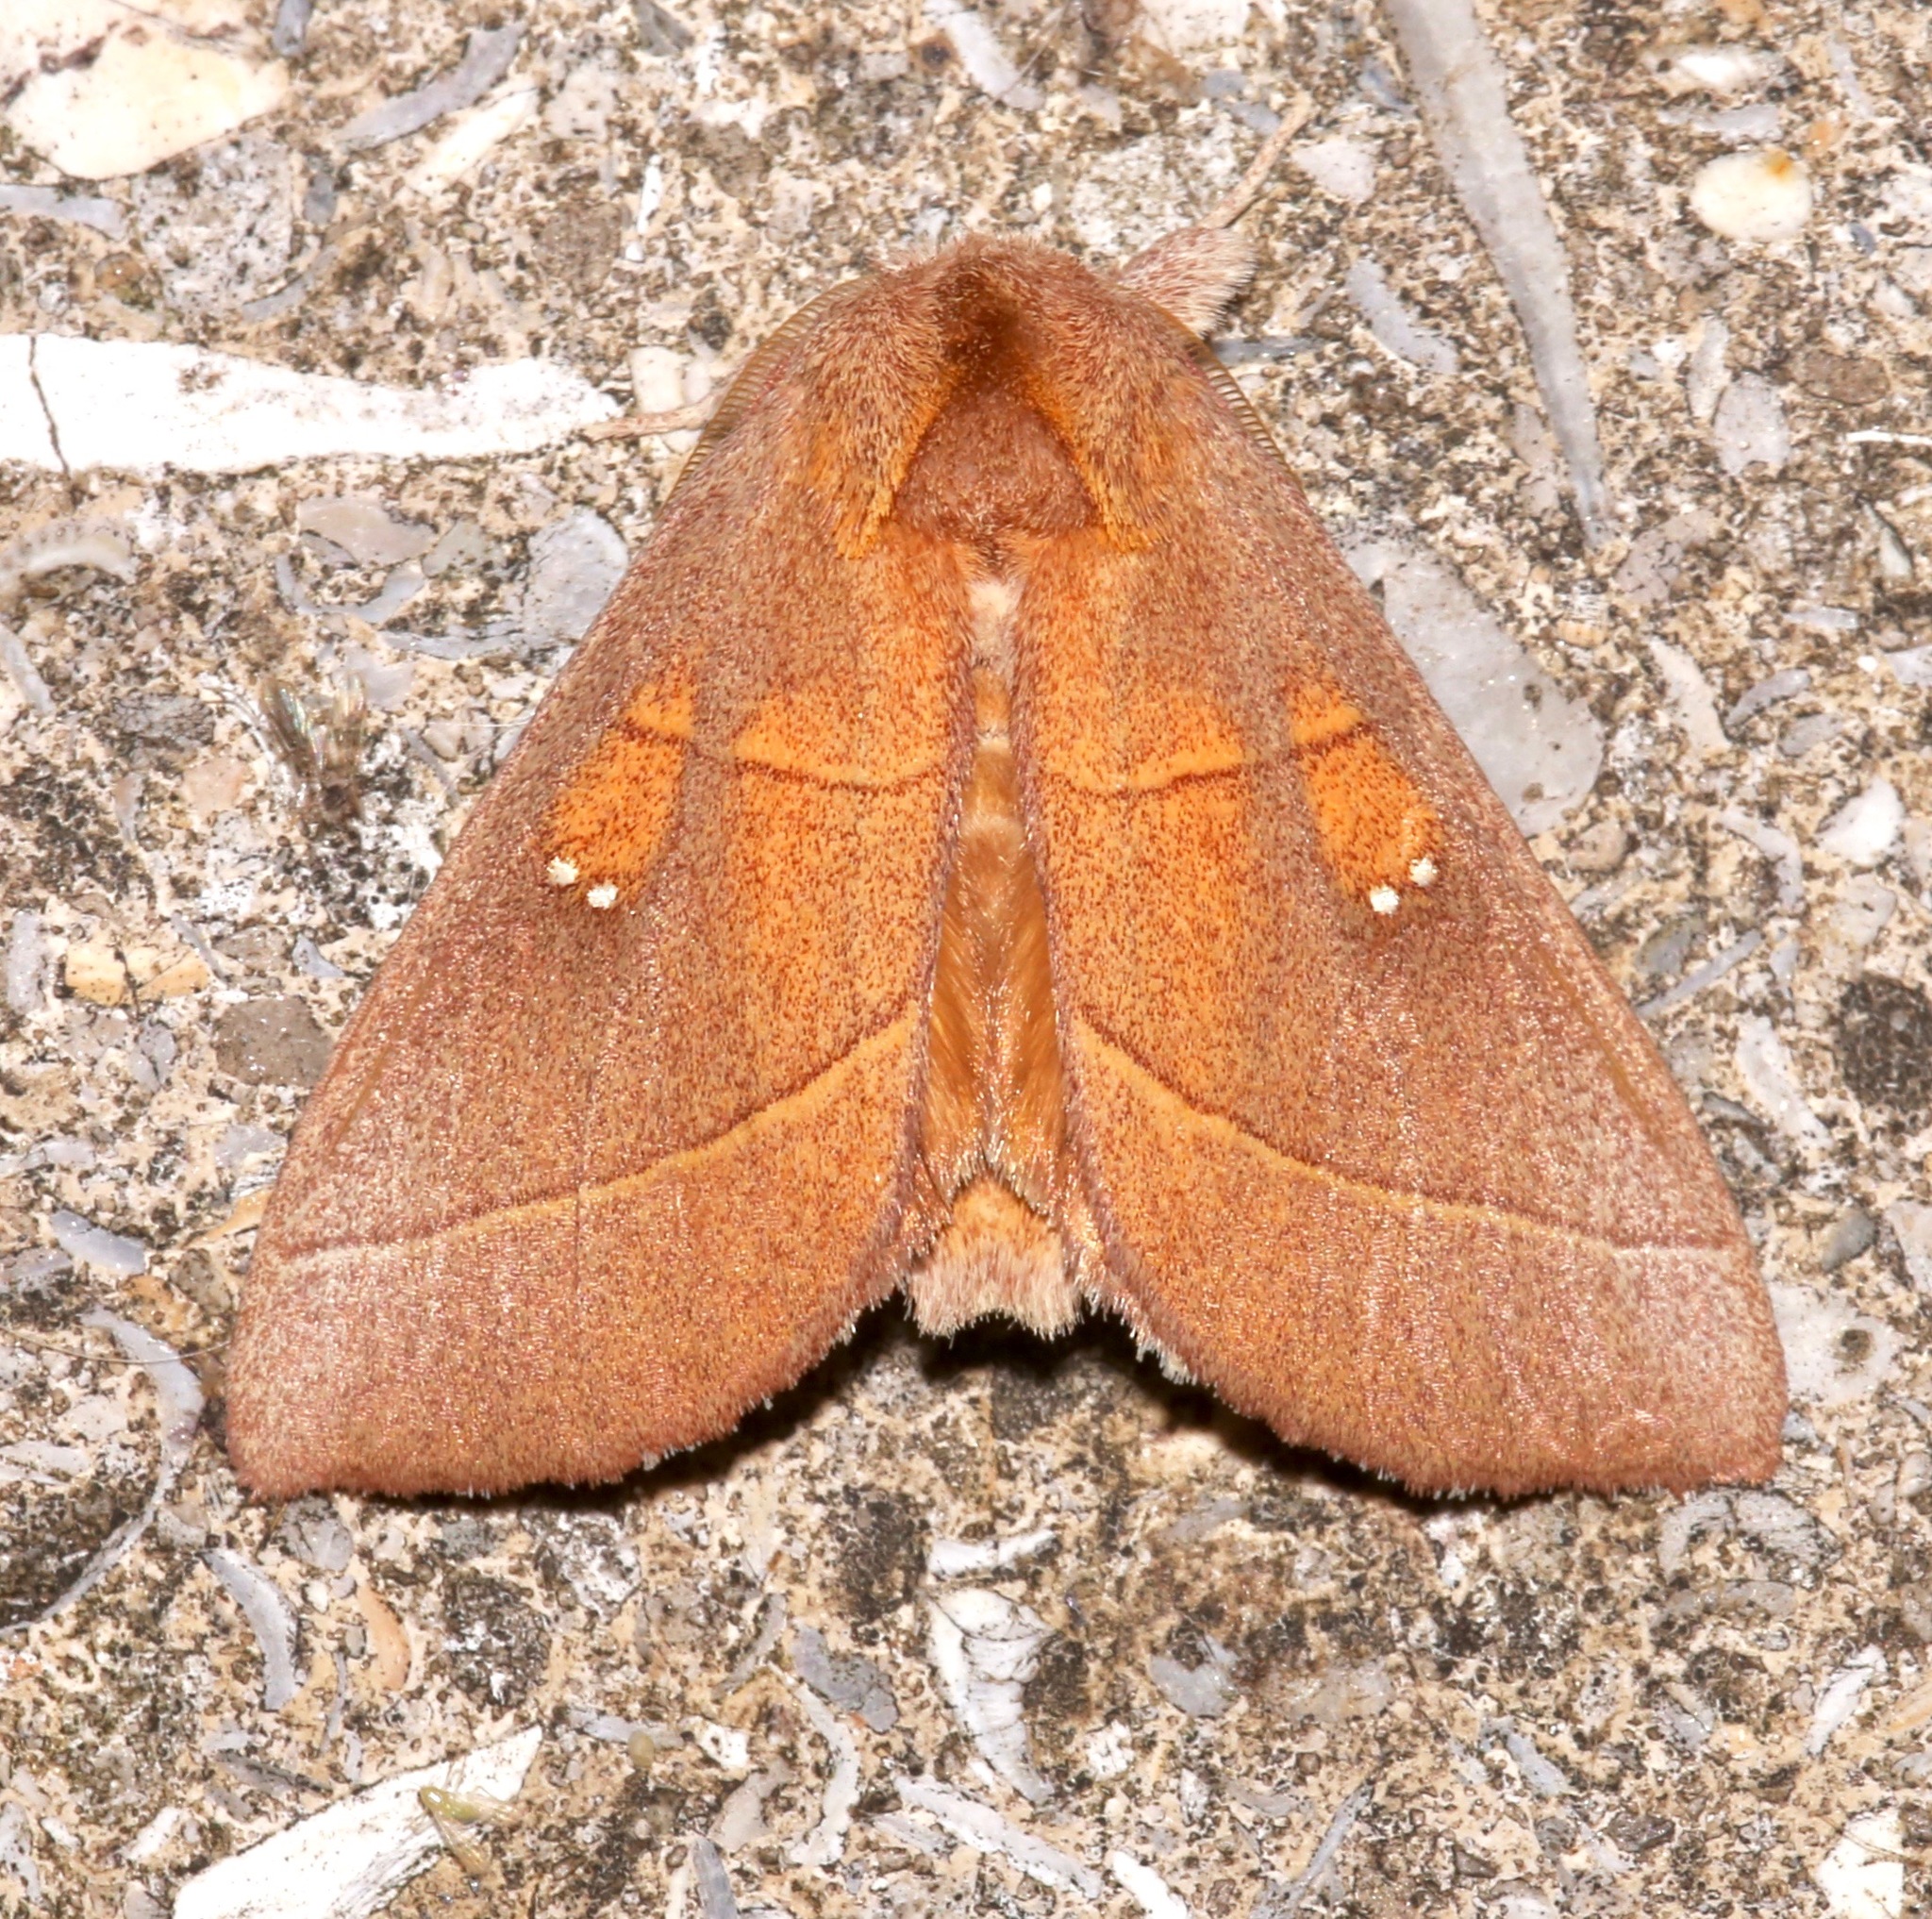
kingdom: Animalia
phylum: Arthropoda
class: Insecta
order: Lepidoptera
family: Notodontidae
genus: Nadata
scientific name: Nadata gibbosa
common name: White-dotted prominent
